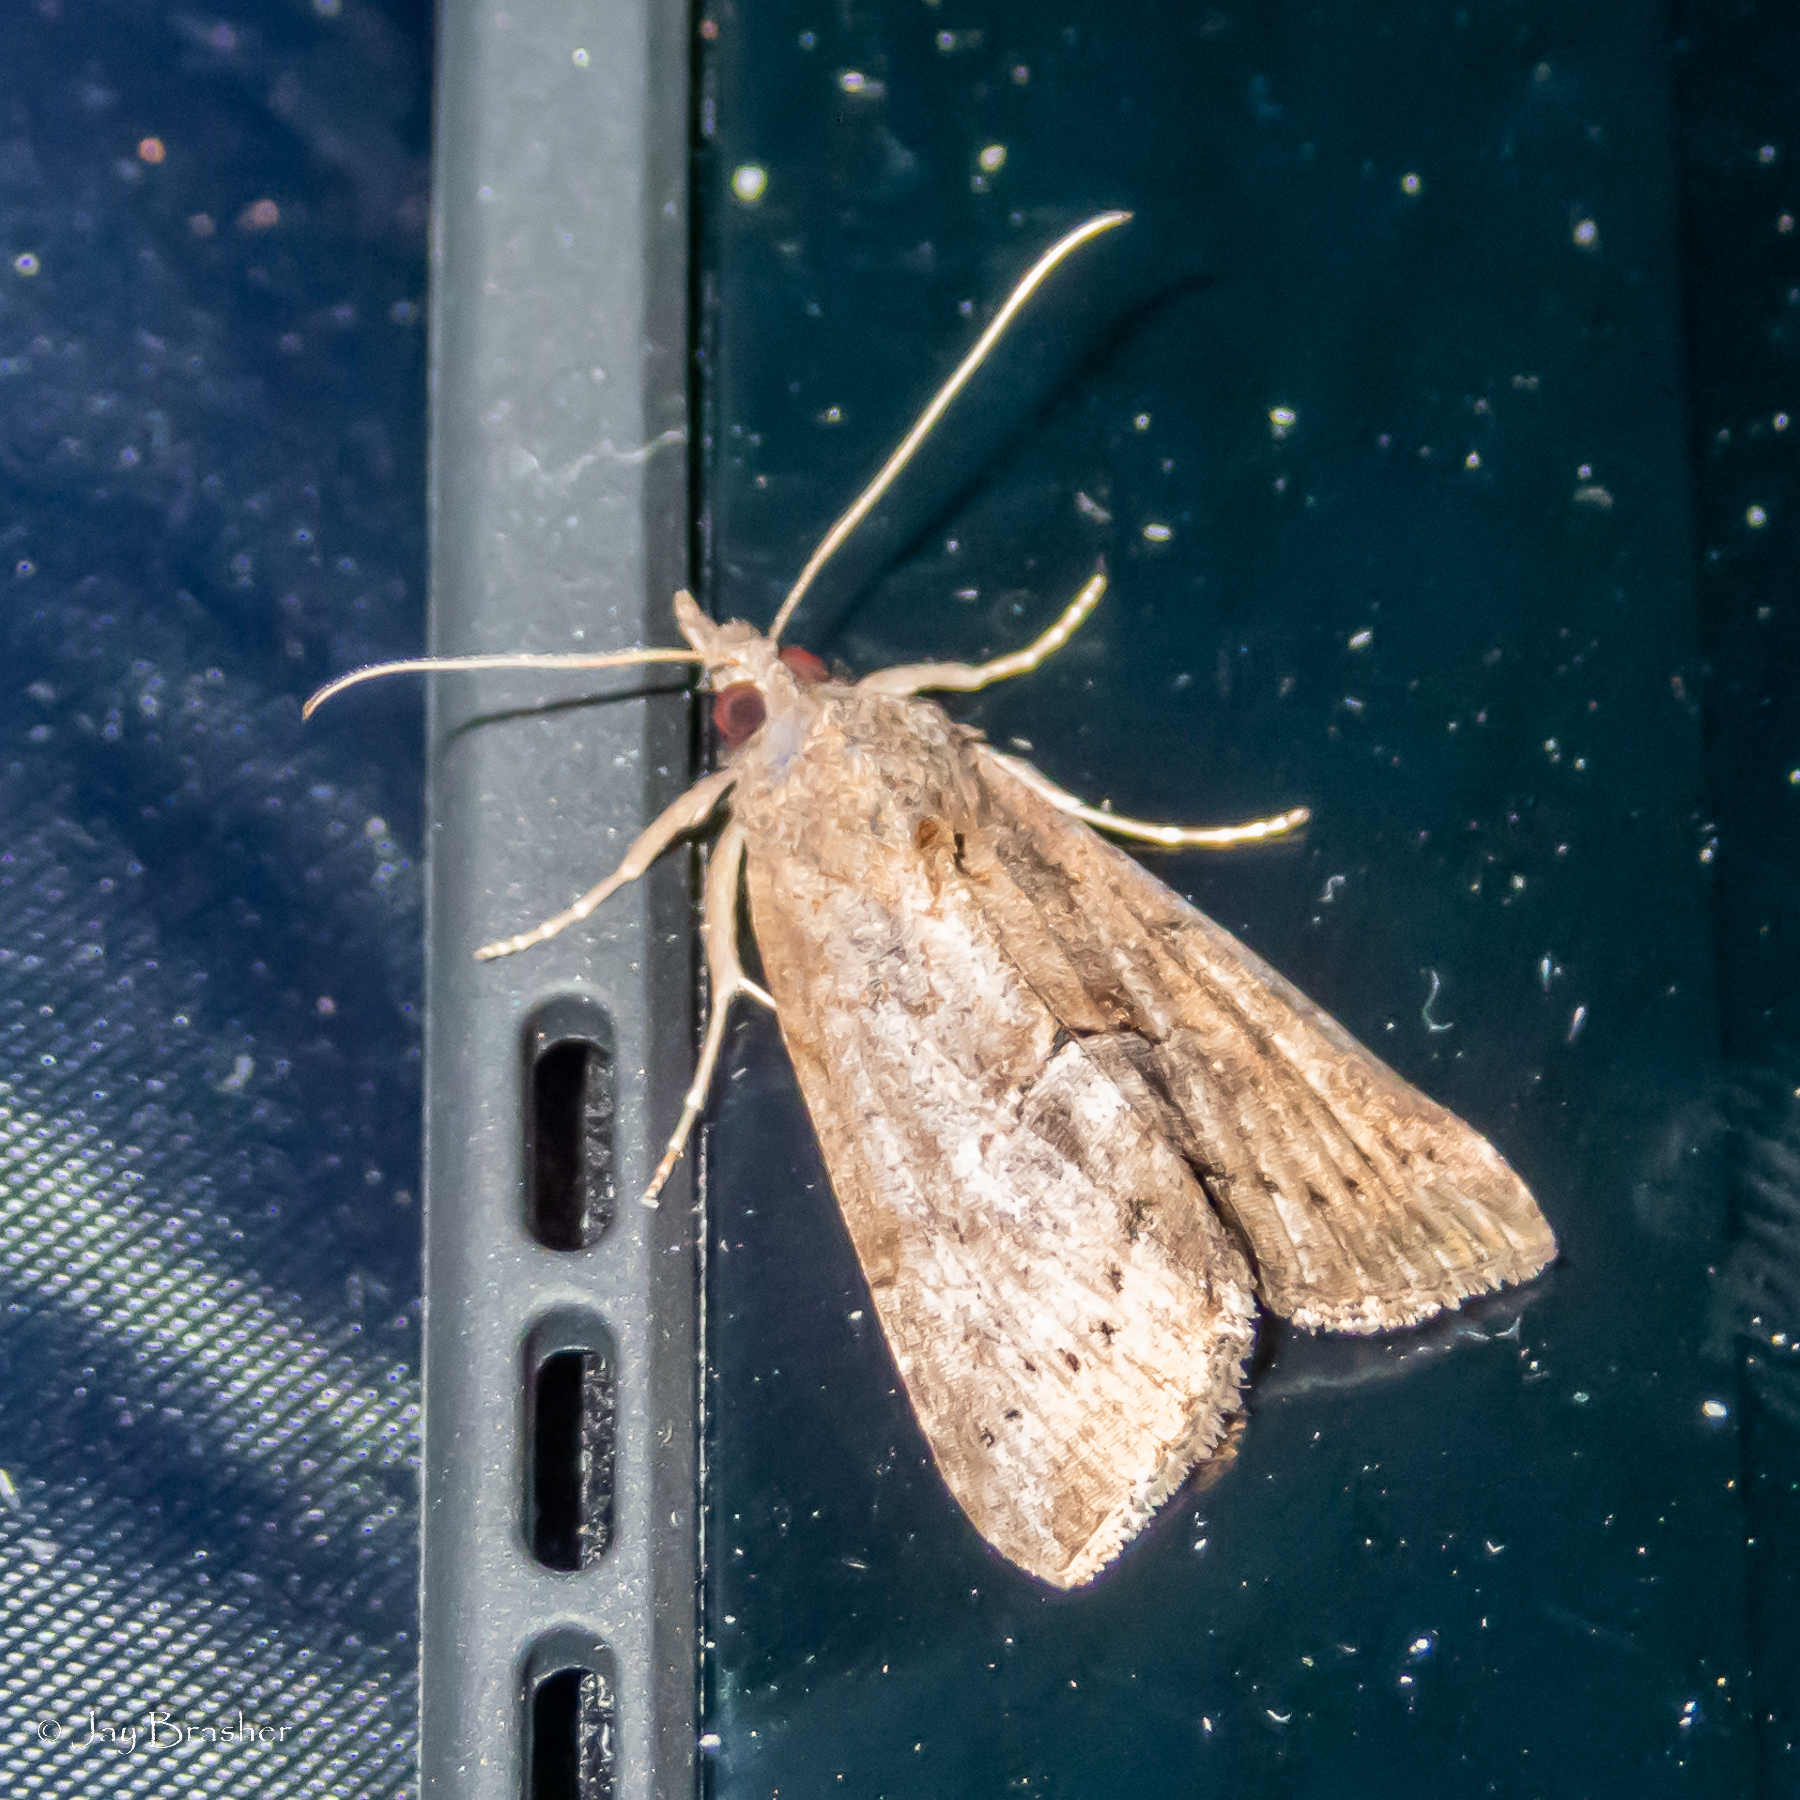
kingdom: Animalia
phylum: Arthropoda
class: Insecta
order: Lepidoptera
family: Erebidae
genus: Hypena
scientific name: Hypena scabra
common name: Green cloverworm
